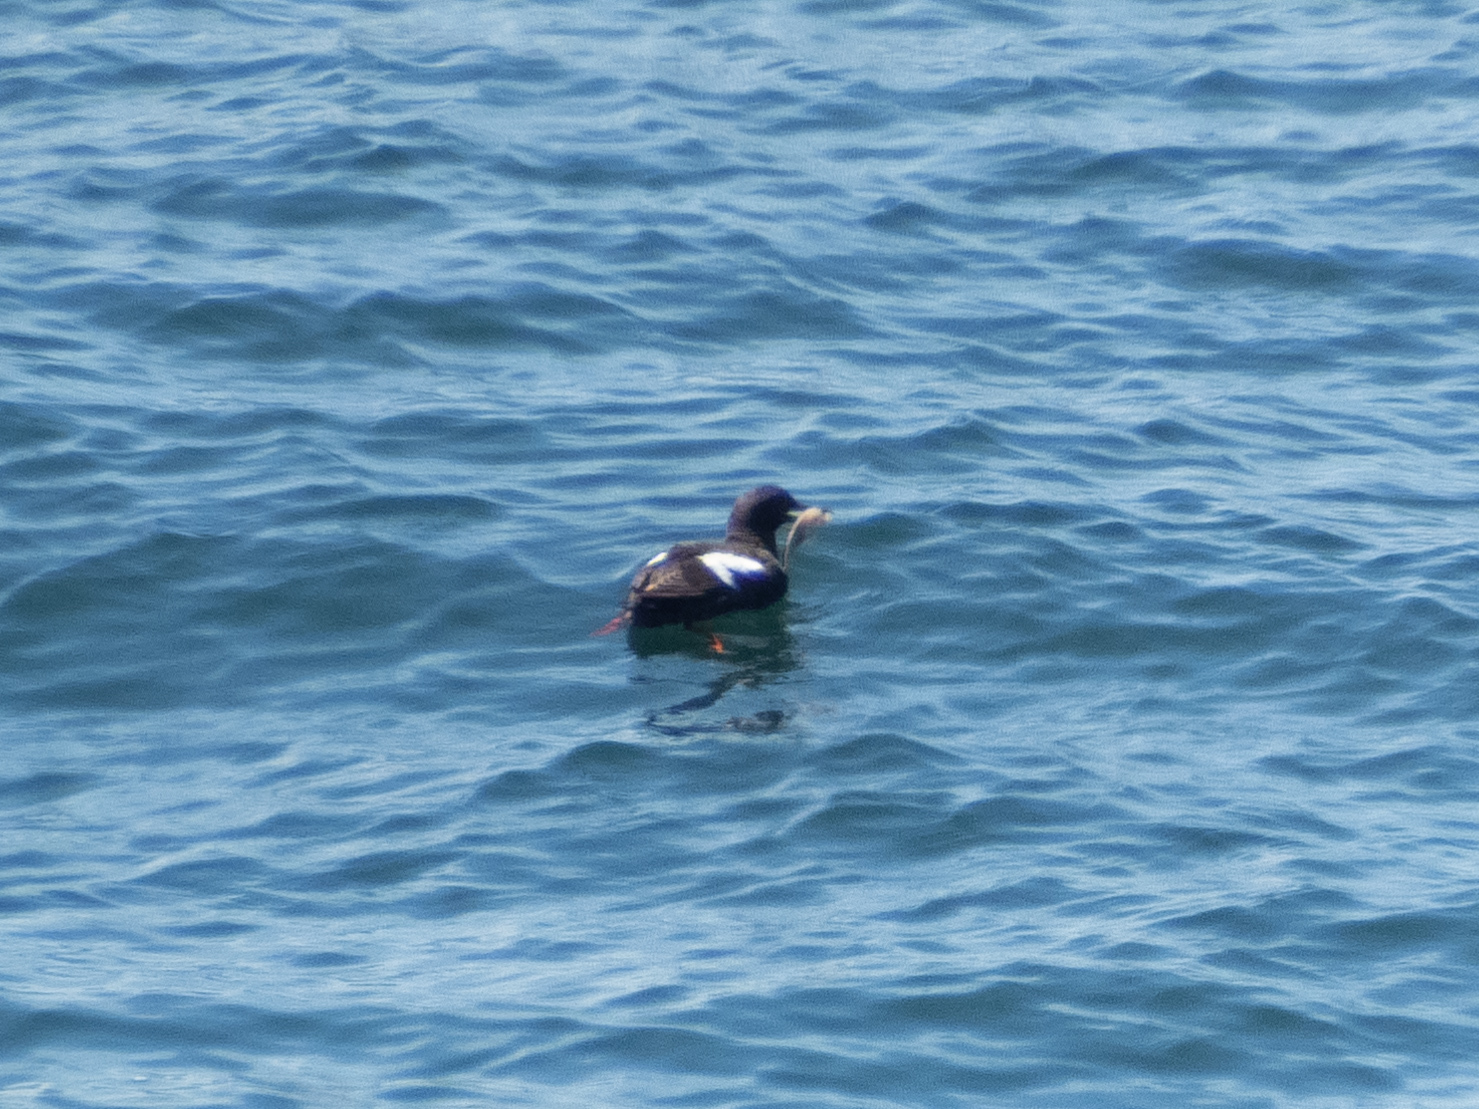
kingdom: Animalia
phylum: Chordata
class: Aves
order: Charadriiformes
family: Alcidae
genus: Cepphus
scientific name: Cepphus columba
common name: Pigeon guillemot
